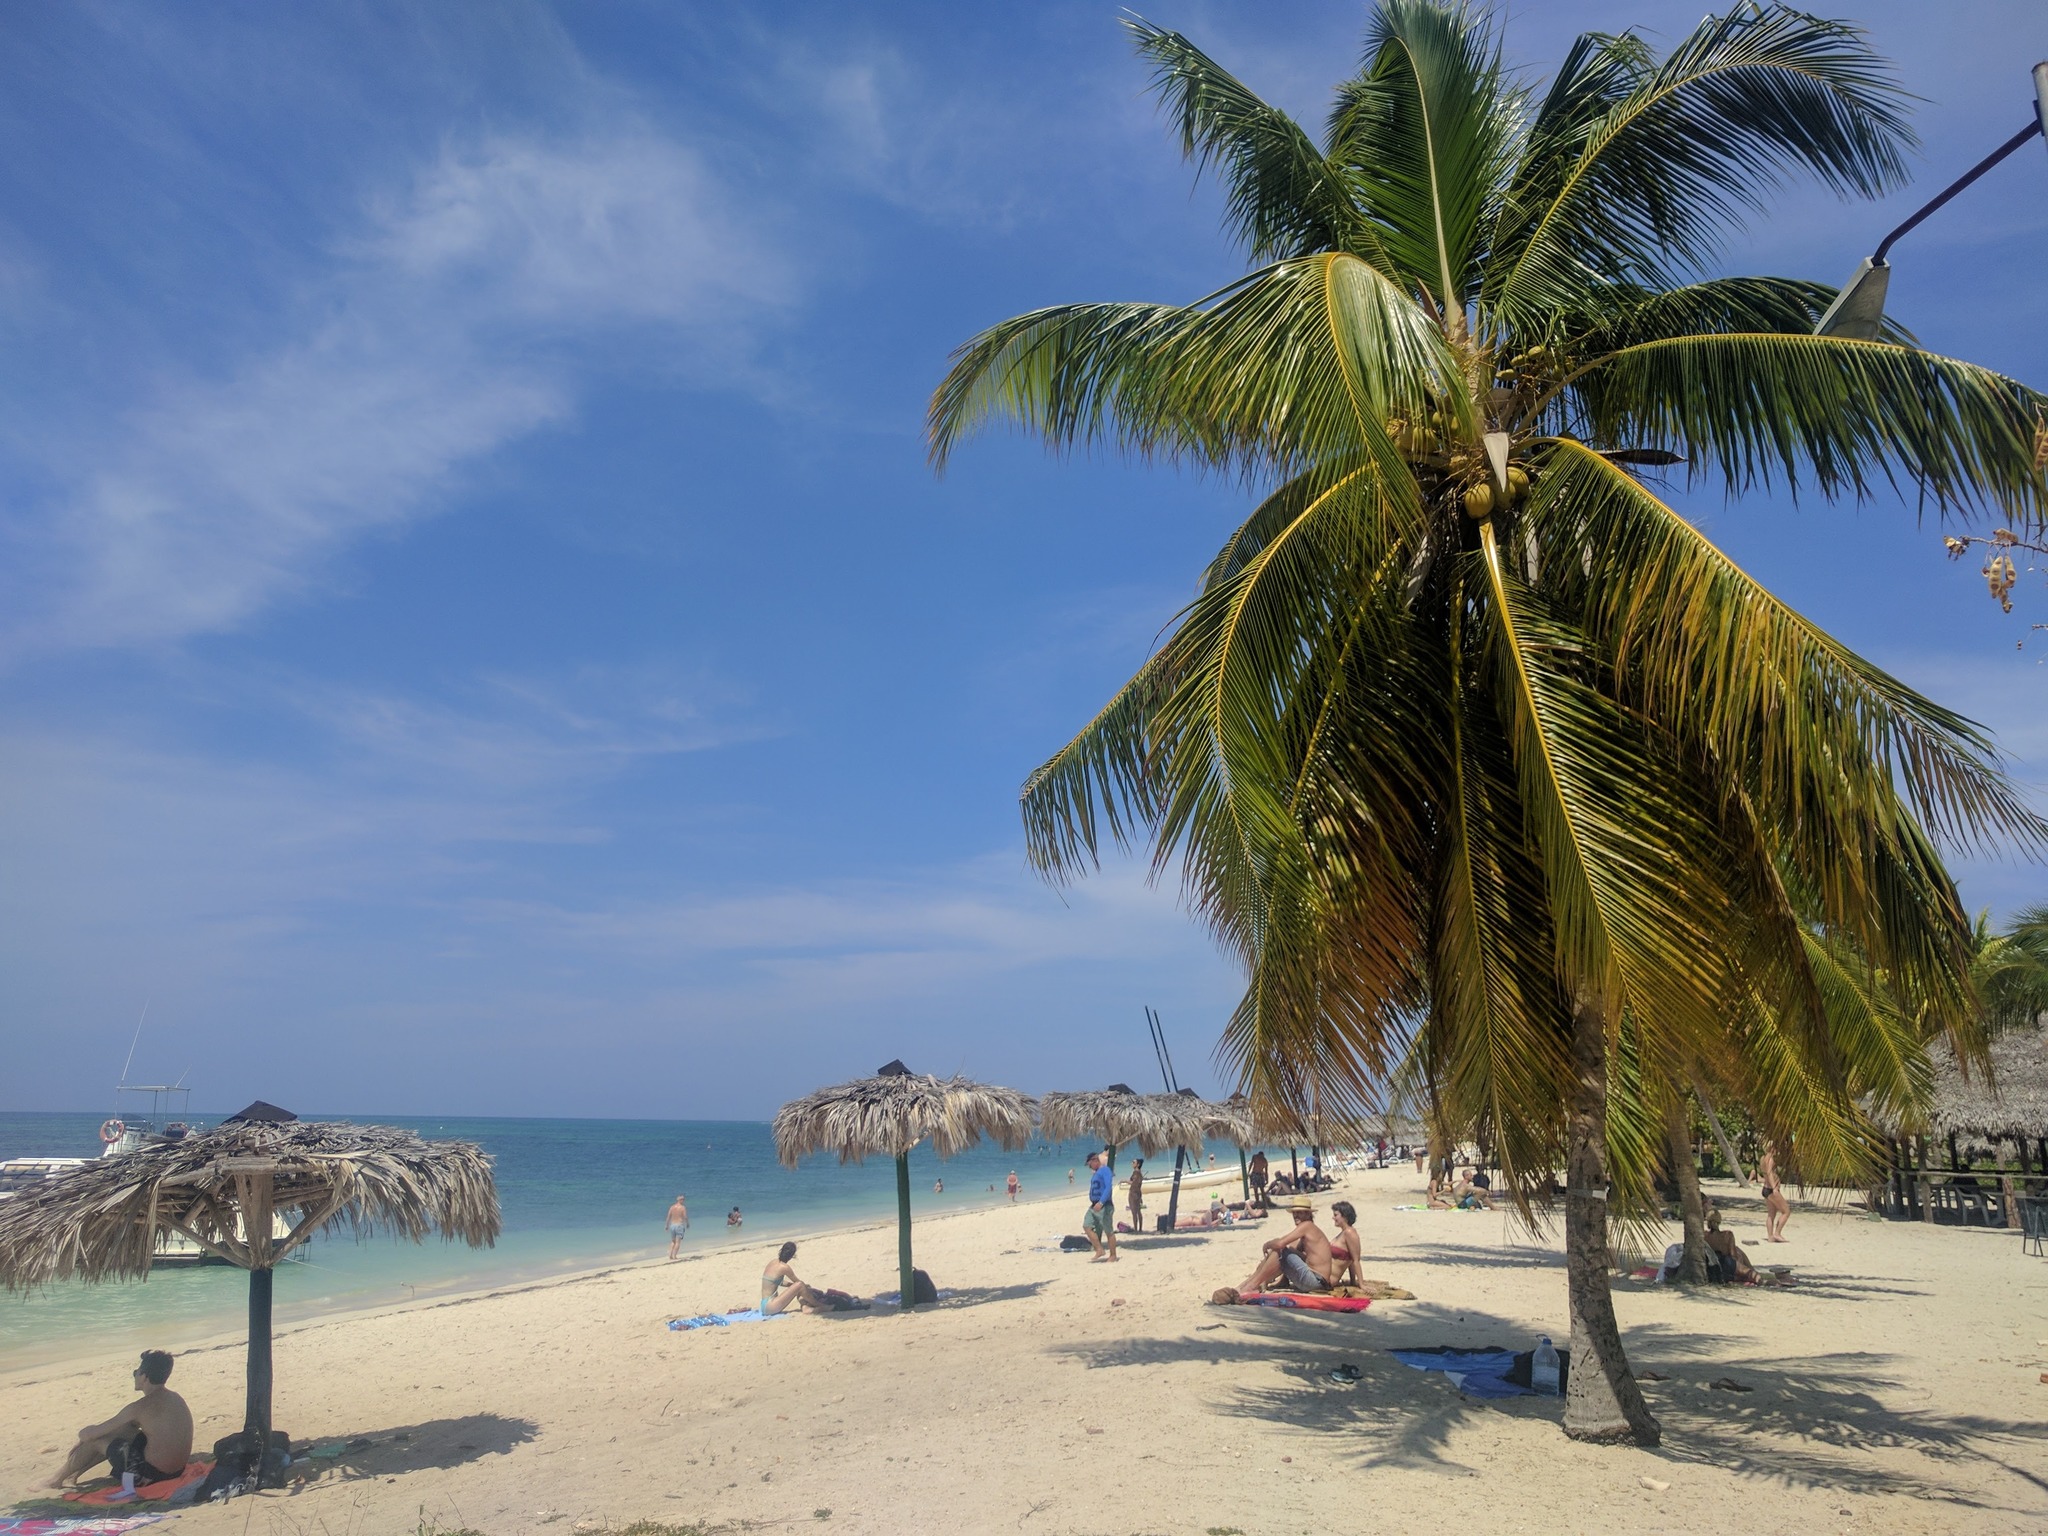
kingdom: Plantae
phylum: Tracheophyta
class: Liliopsida
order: Arecales
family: Arecaceae
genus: Cocos
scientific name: Cocos nucifera
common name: Coconut palm
